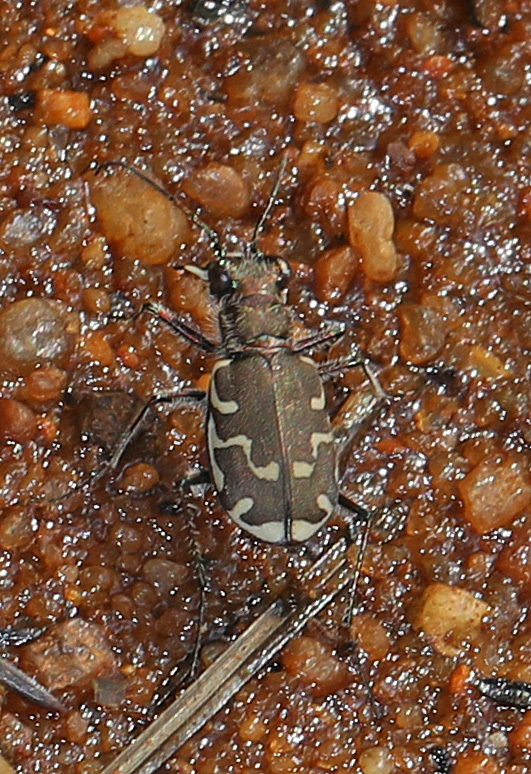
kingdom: Animalia
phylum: Arthropoda
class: Insecta
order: Coleoptera
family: Carabidae
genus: Cicindela
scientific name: Cicindela repanda
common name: Bronzed tiger beetle
